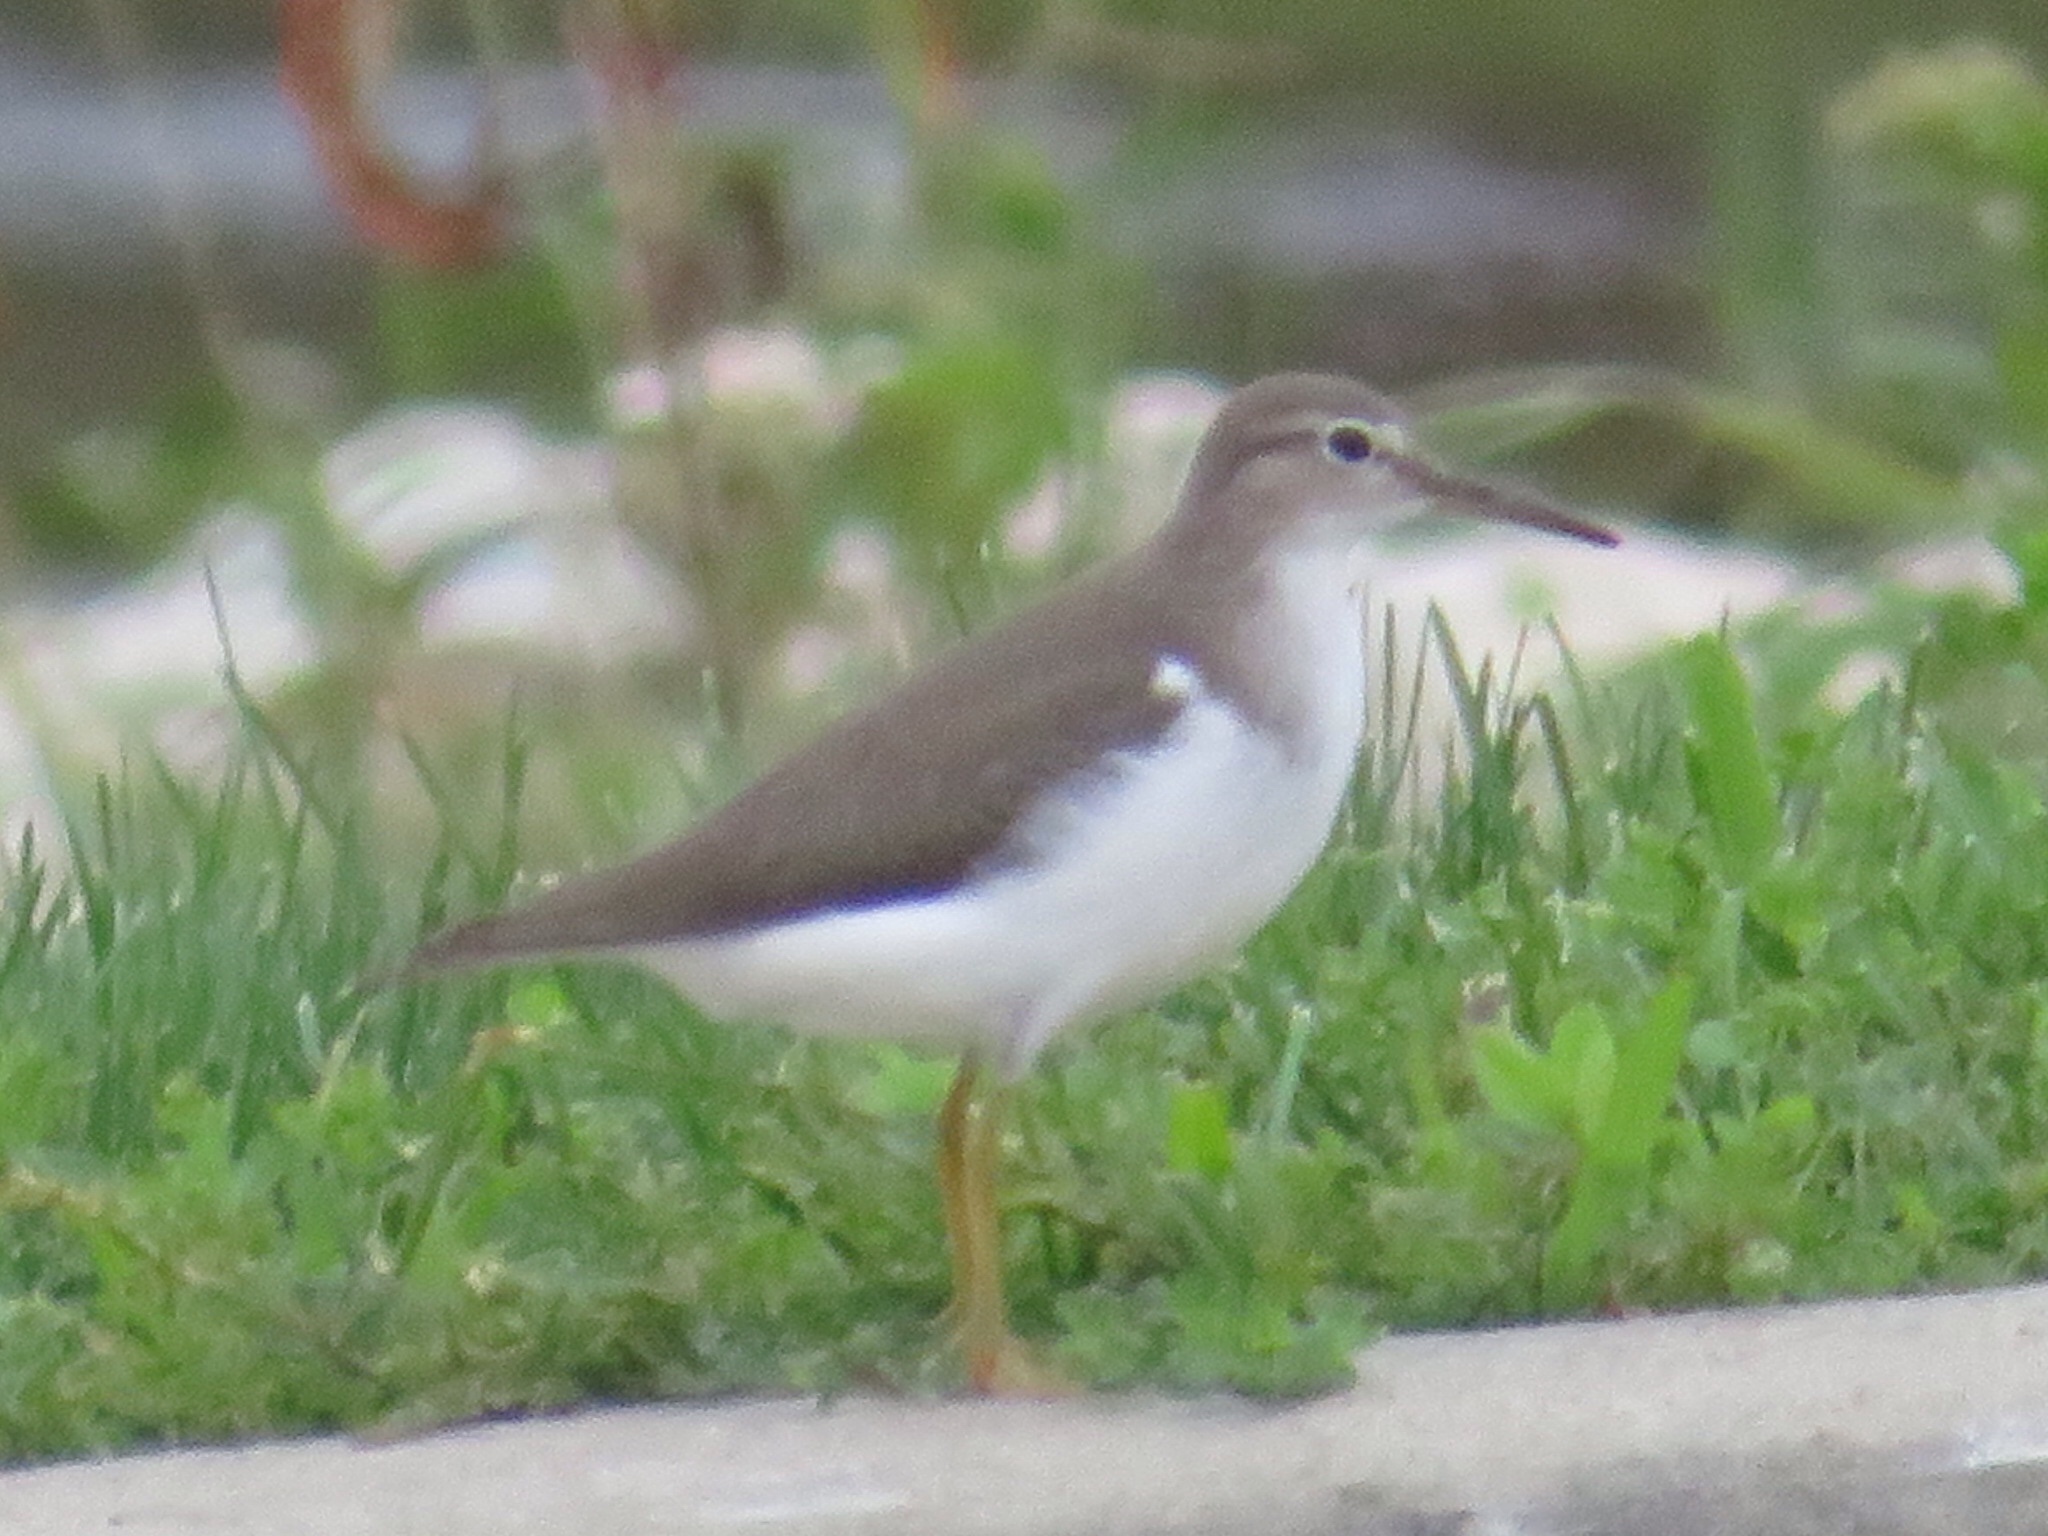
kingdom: Animalia
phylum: Chordata
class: Aves
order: Charadriiformes
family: Scolopacidae
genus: Actitis
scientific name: Actitis macularius
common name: Spotted sandpiper
